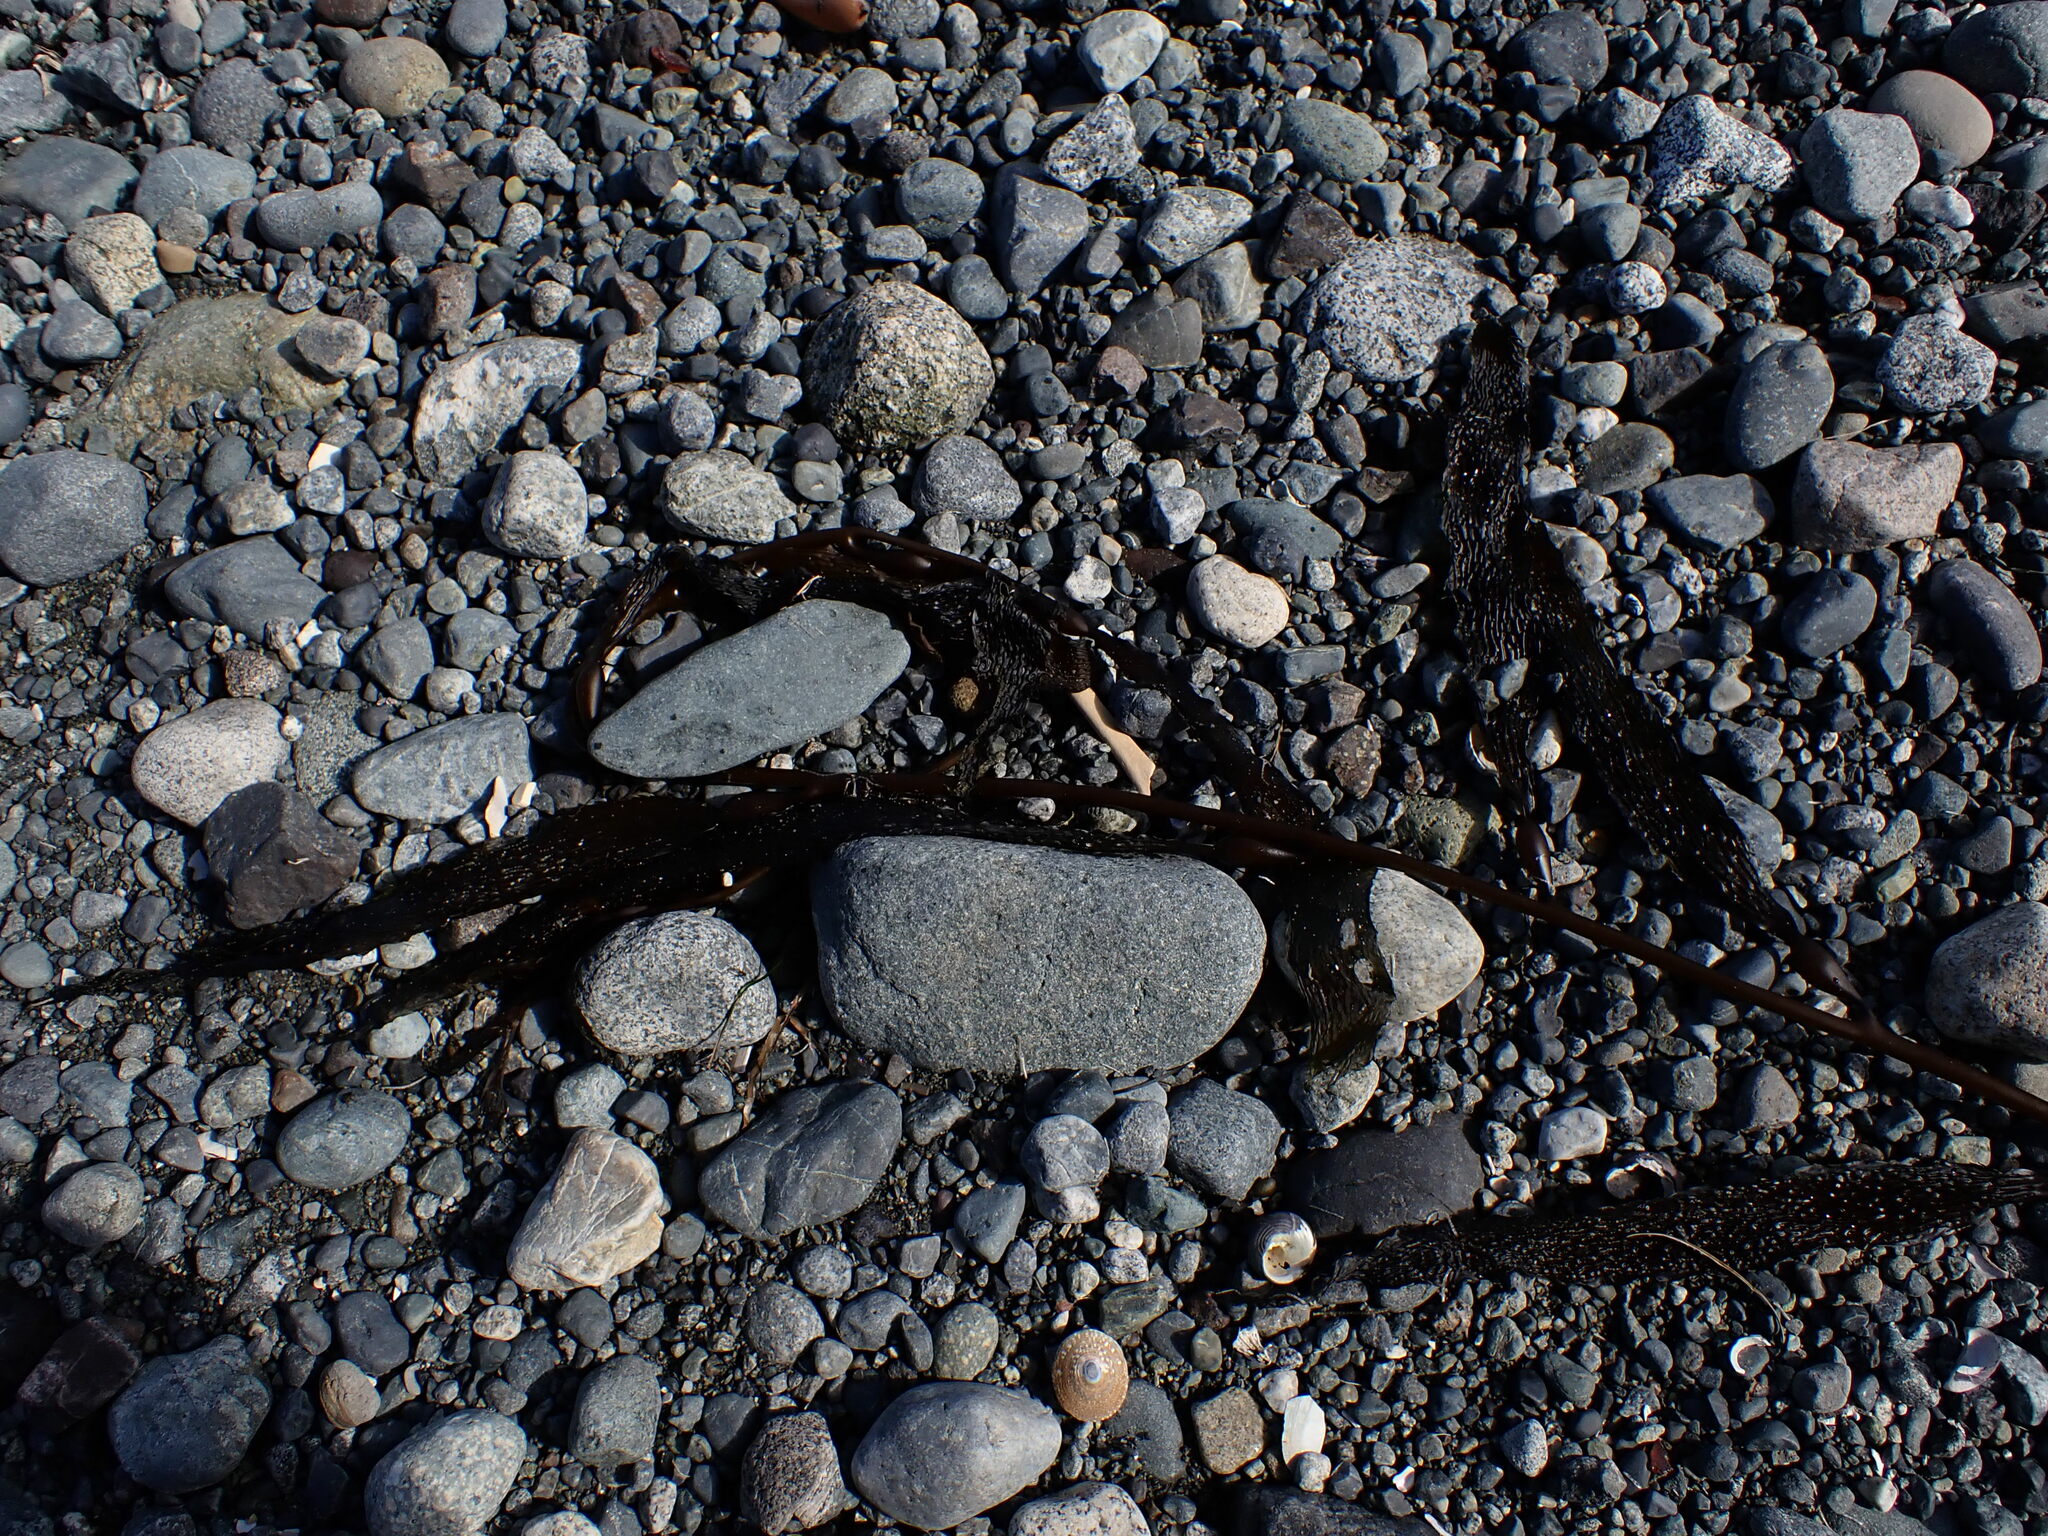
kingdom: Chromista
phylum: Ochrophyta
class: Phaeophyceae
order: Laminariales
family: Laminariaceae
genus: Macrocystis
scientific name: Macrocystis pyrifera
